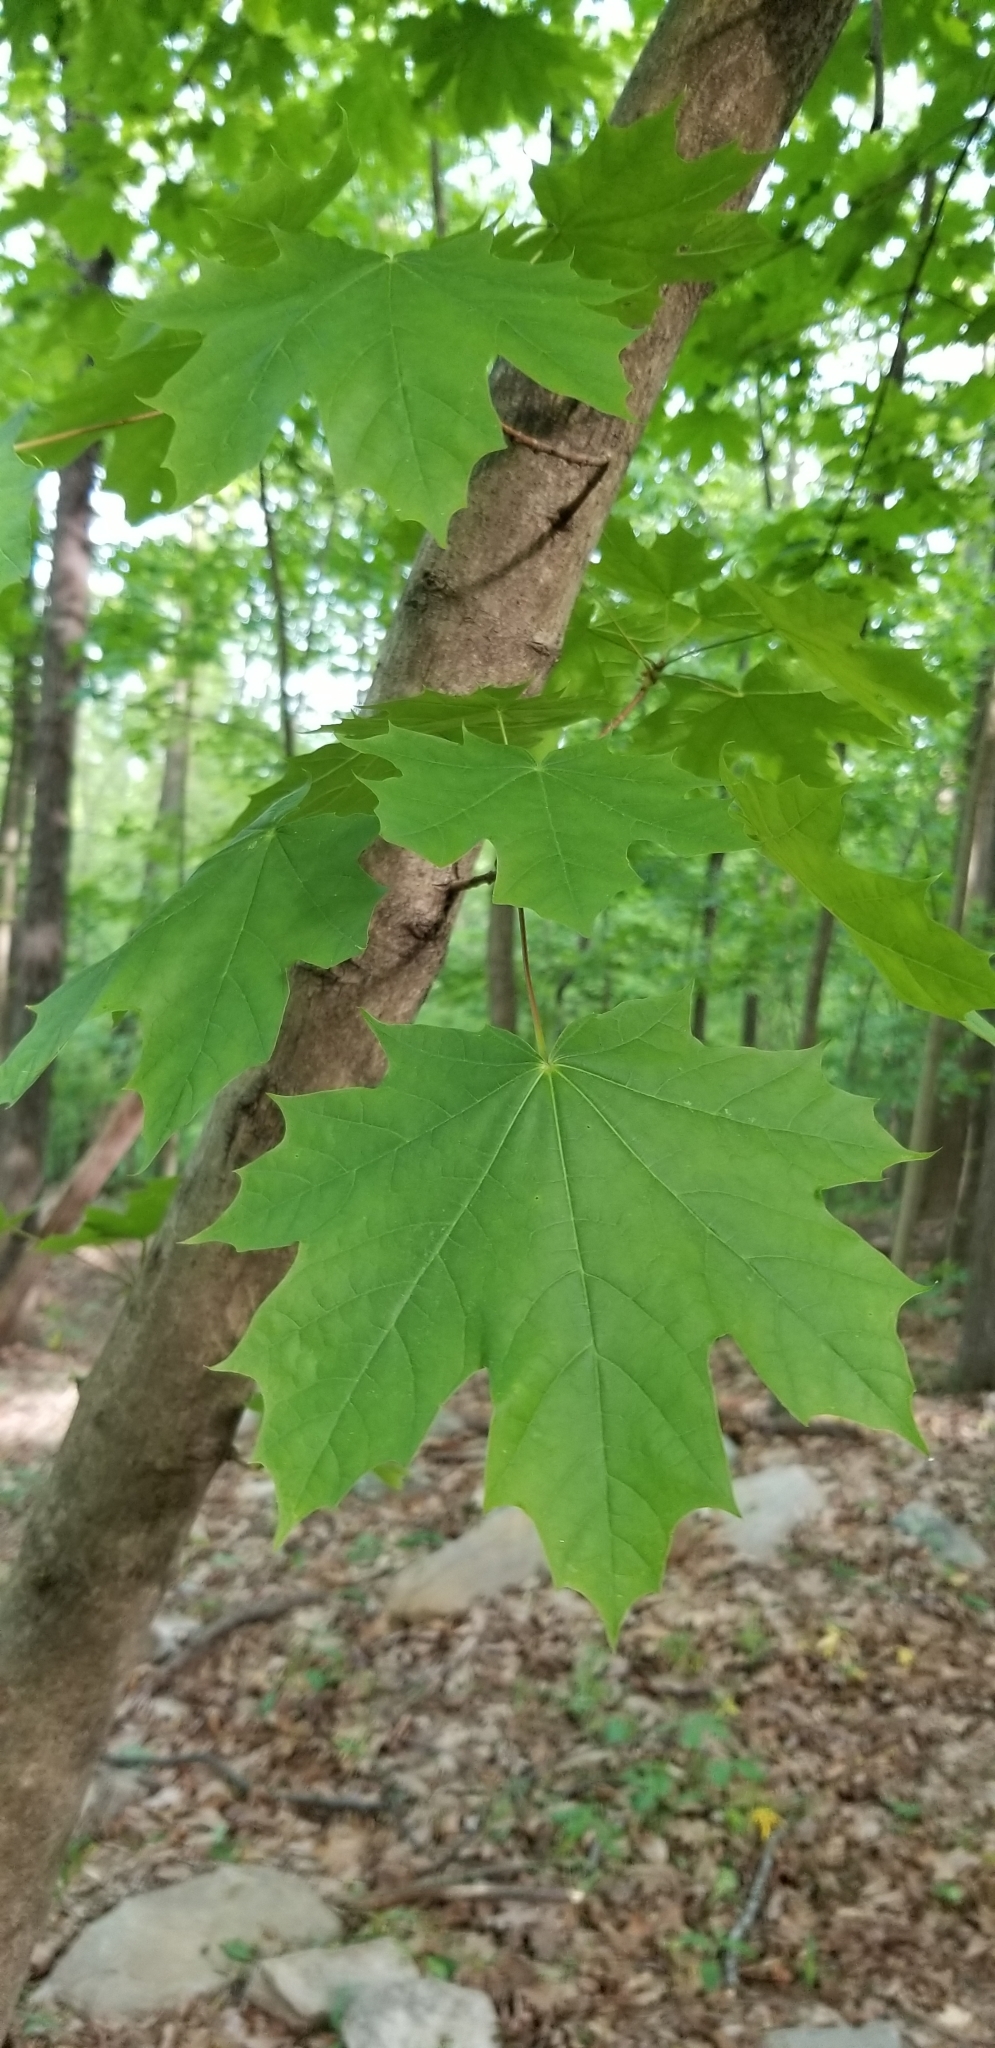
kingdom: Plantae
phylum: Tracheophyta
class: Magnoliopsida
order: Sapindales
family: Sapindaceae
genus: Acer
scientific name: Acer platanoides
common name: Norway maple
